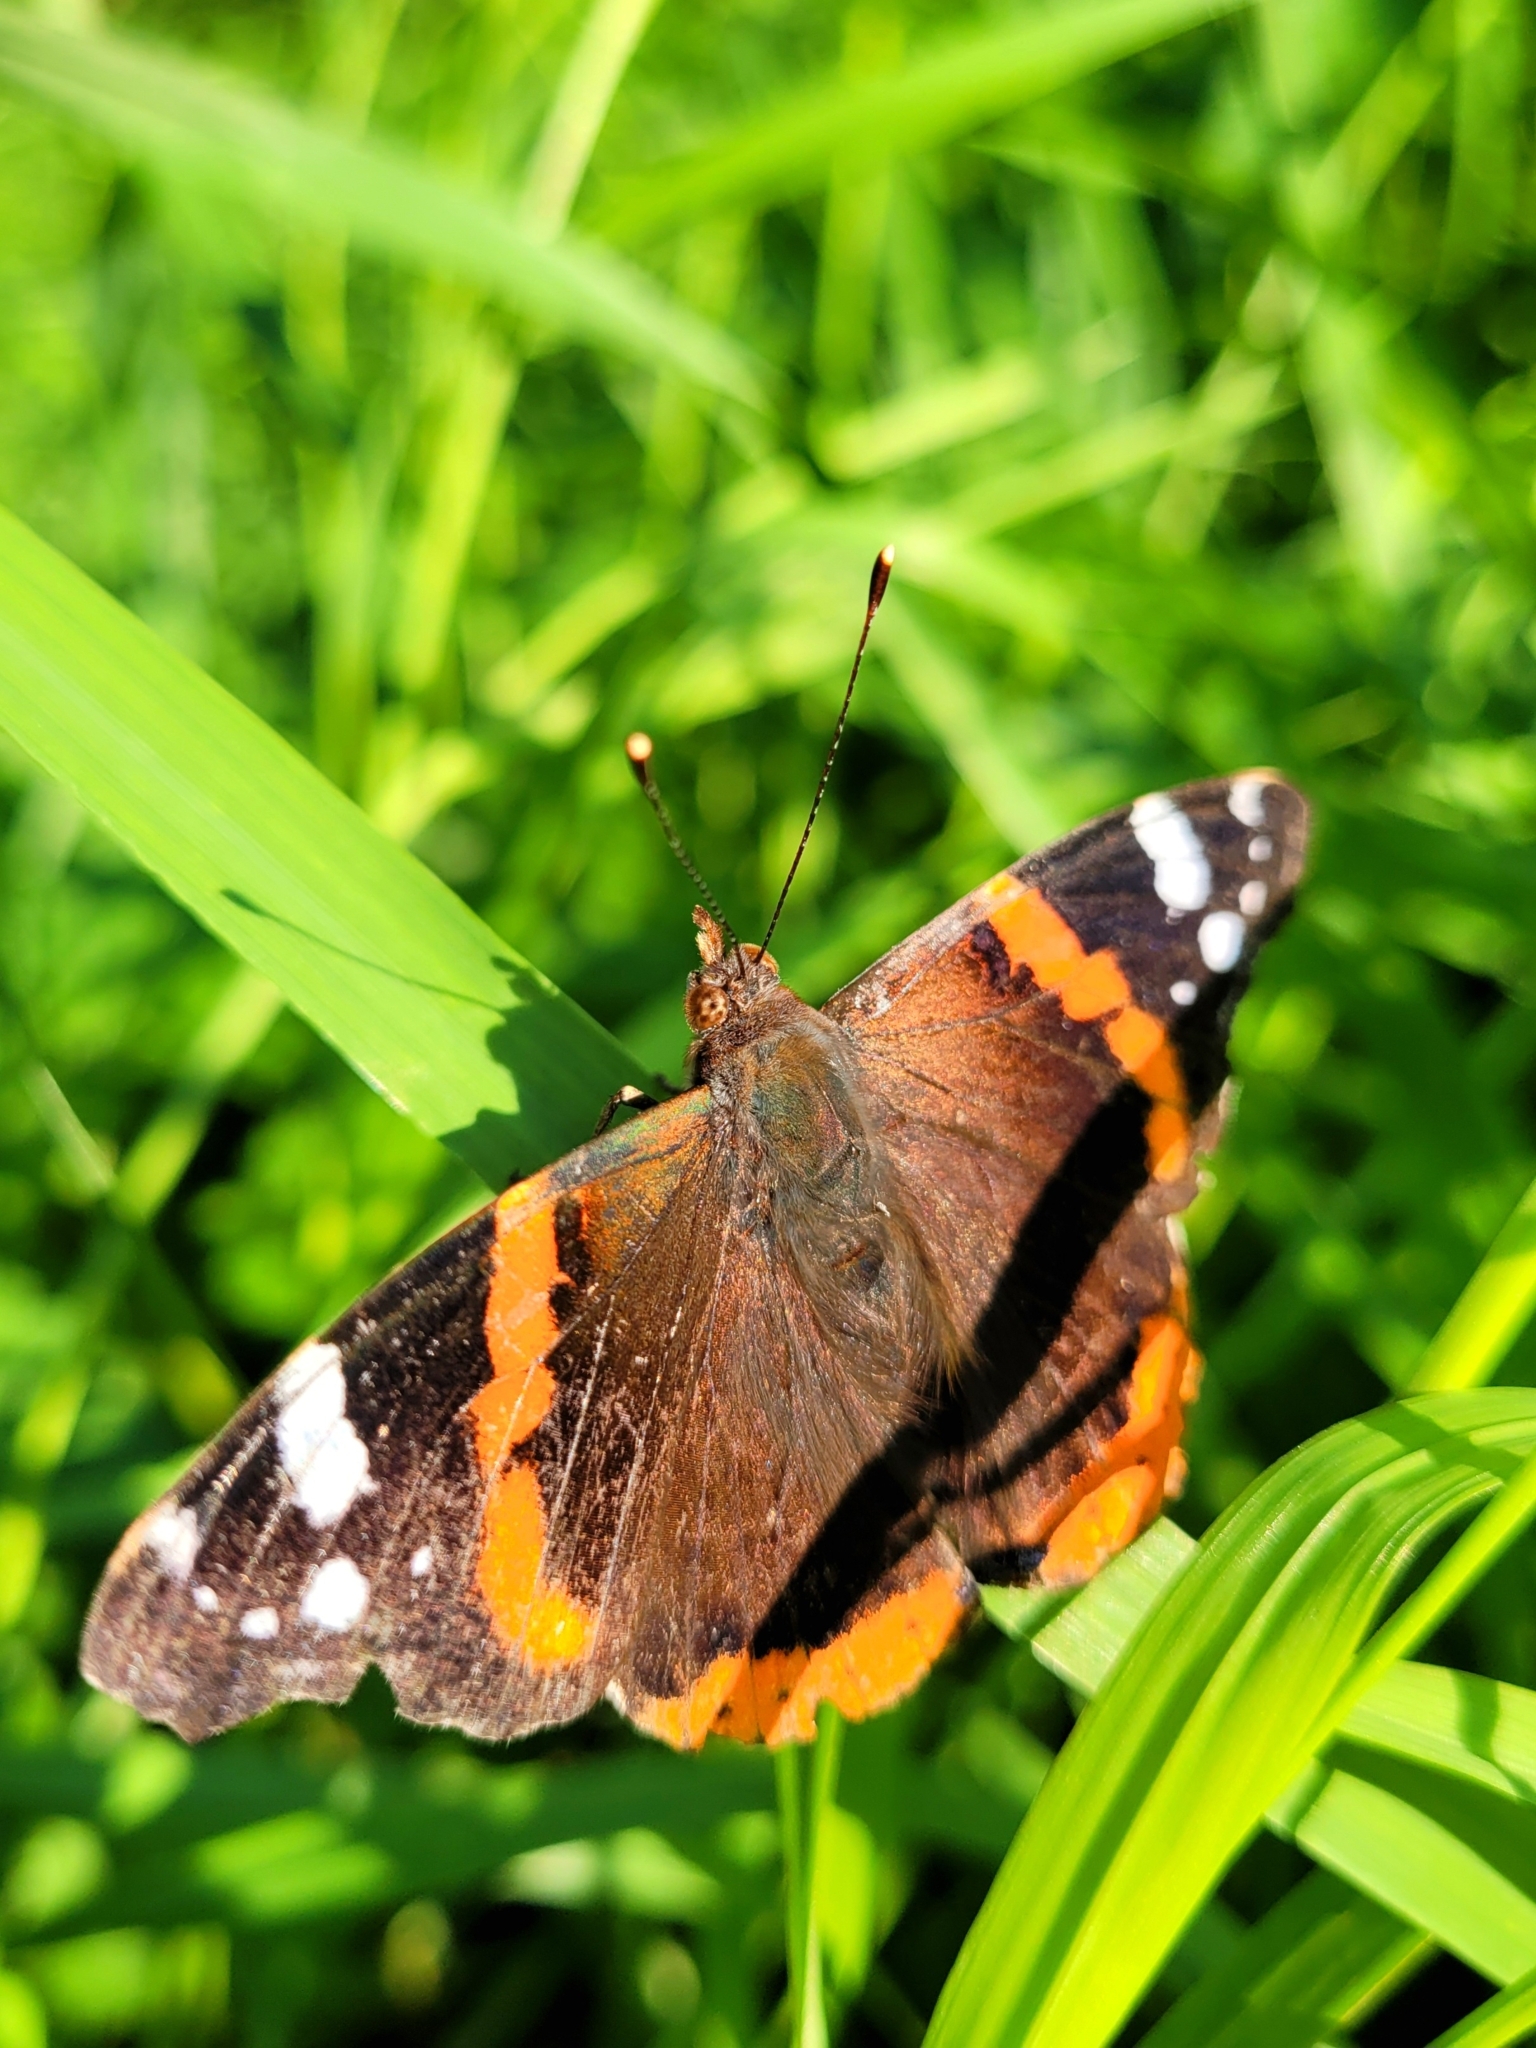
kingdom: Animalia
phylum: Arthropoda
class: Insecta
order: Lepidoptera
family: Nymphalidae
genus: Vanessa
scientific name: Vanessa atalanta
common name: Red admiral
